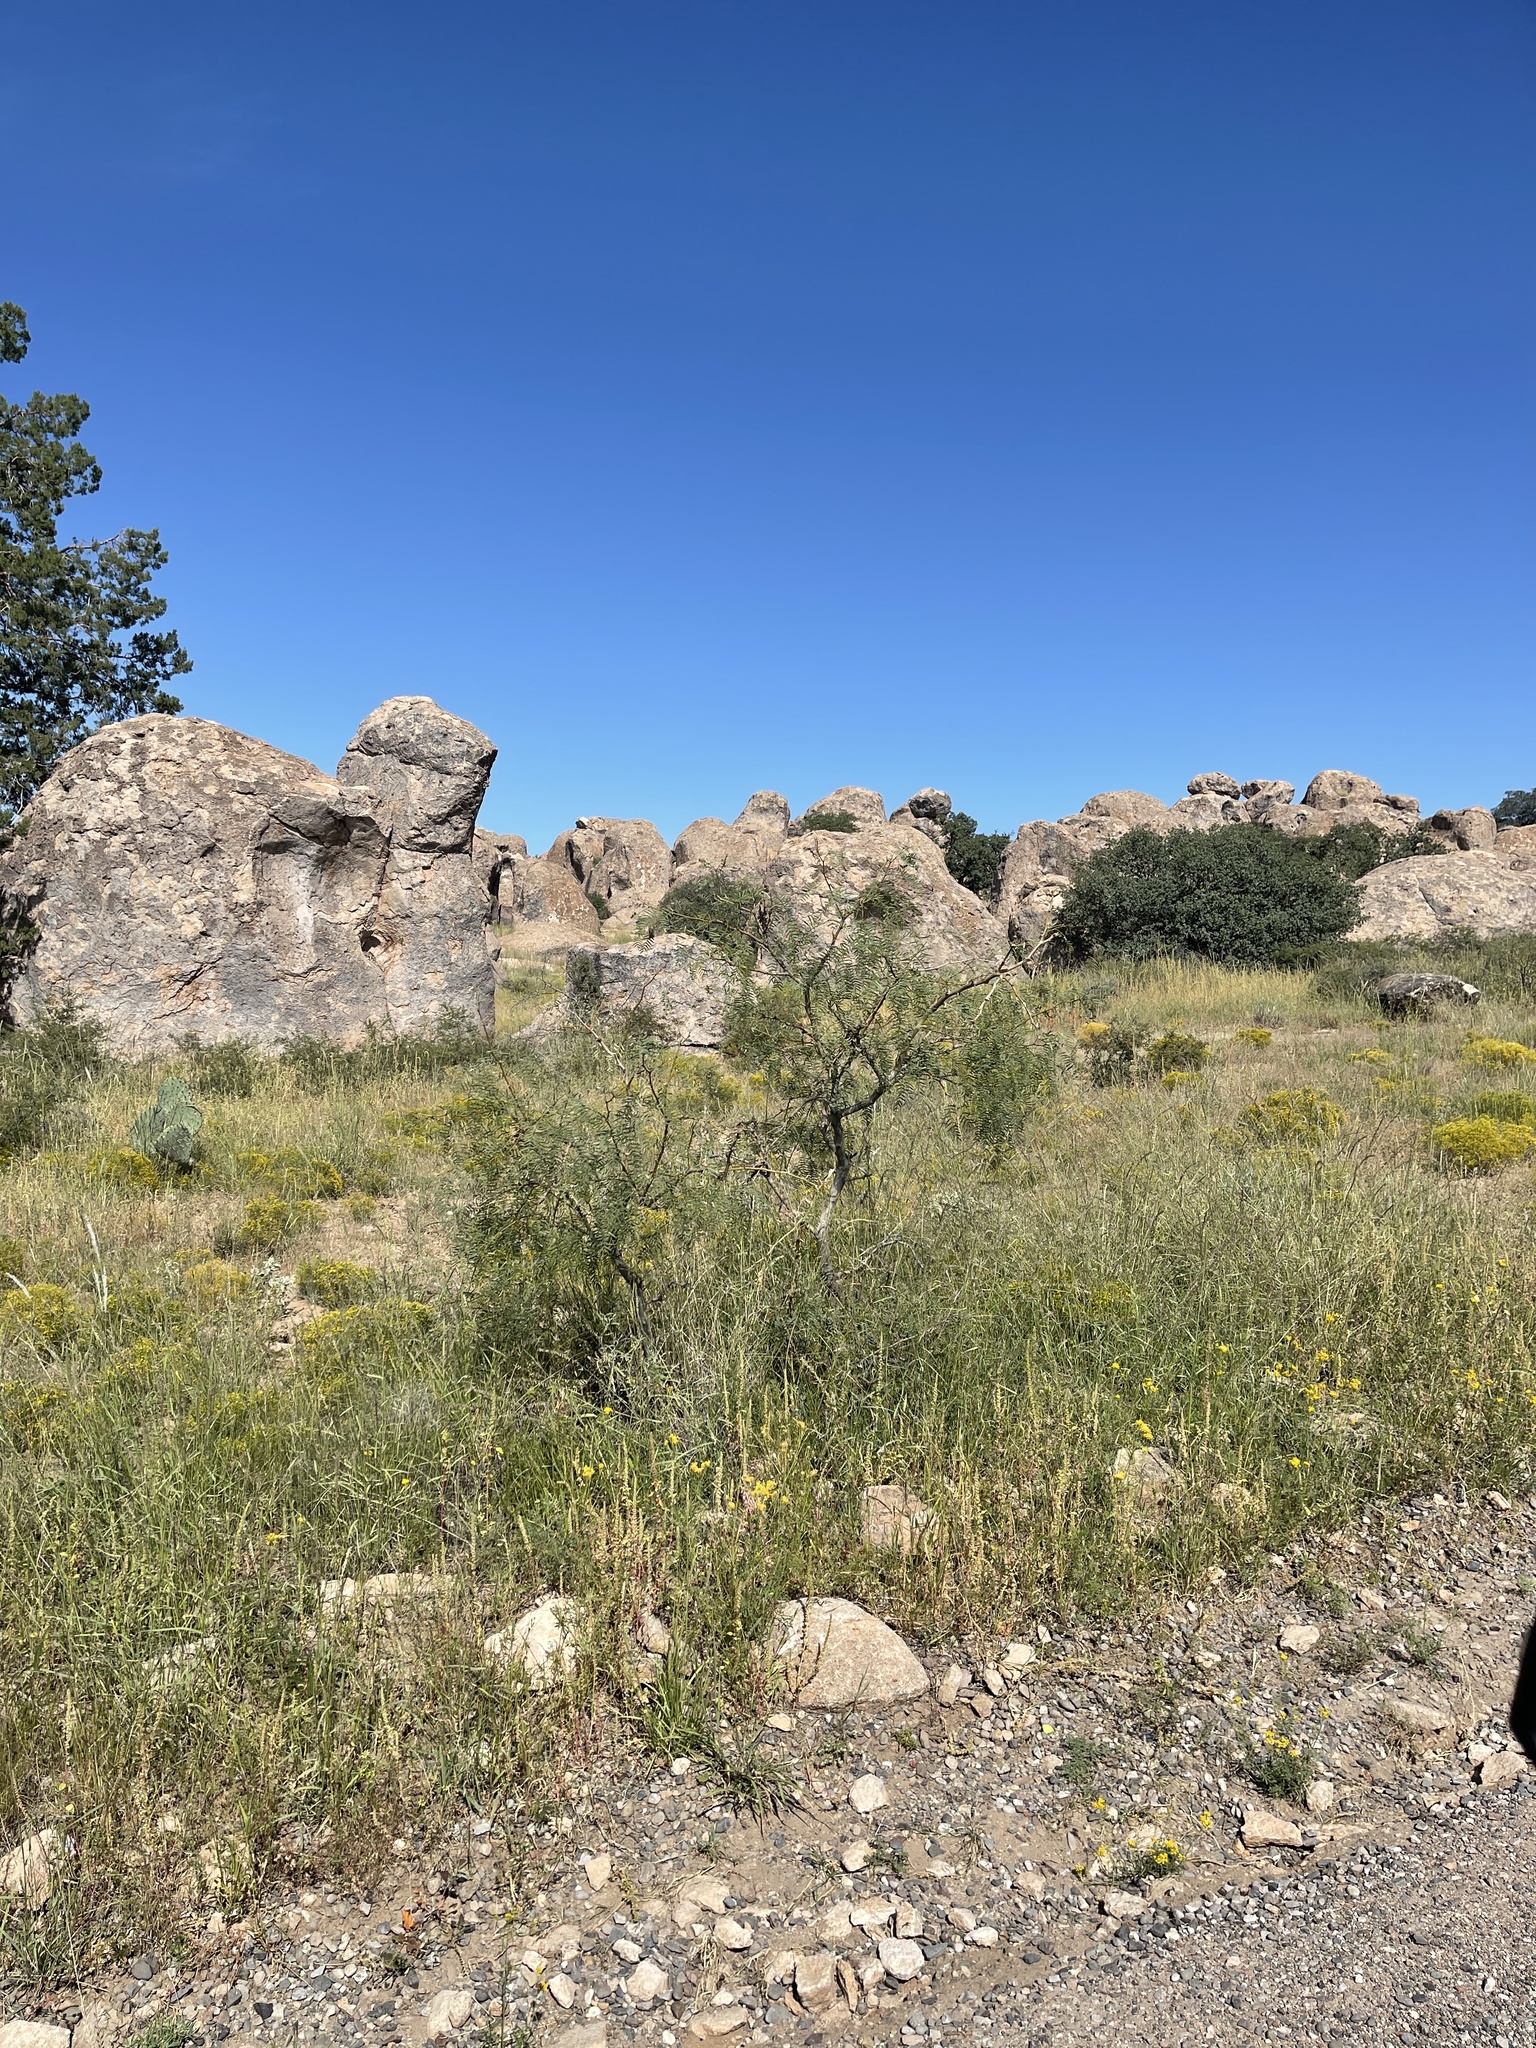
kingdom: Plantae
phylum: Tracheophyta
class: Magnoliopsida
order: Fabales
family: Fabaceae
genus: Prosopis
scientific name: Prosopis glandulosa
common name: Honey mesquite
